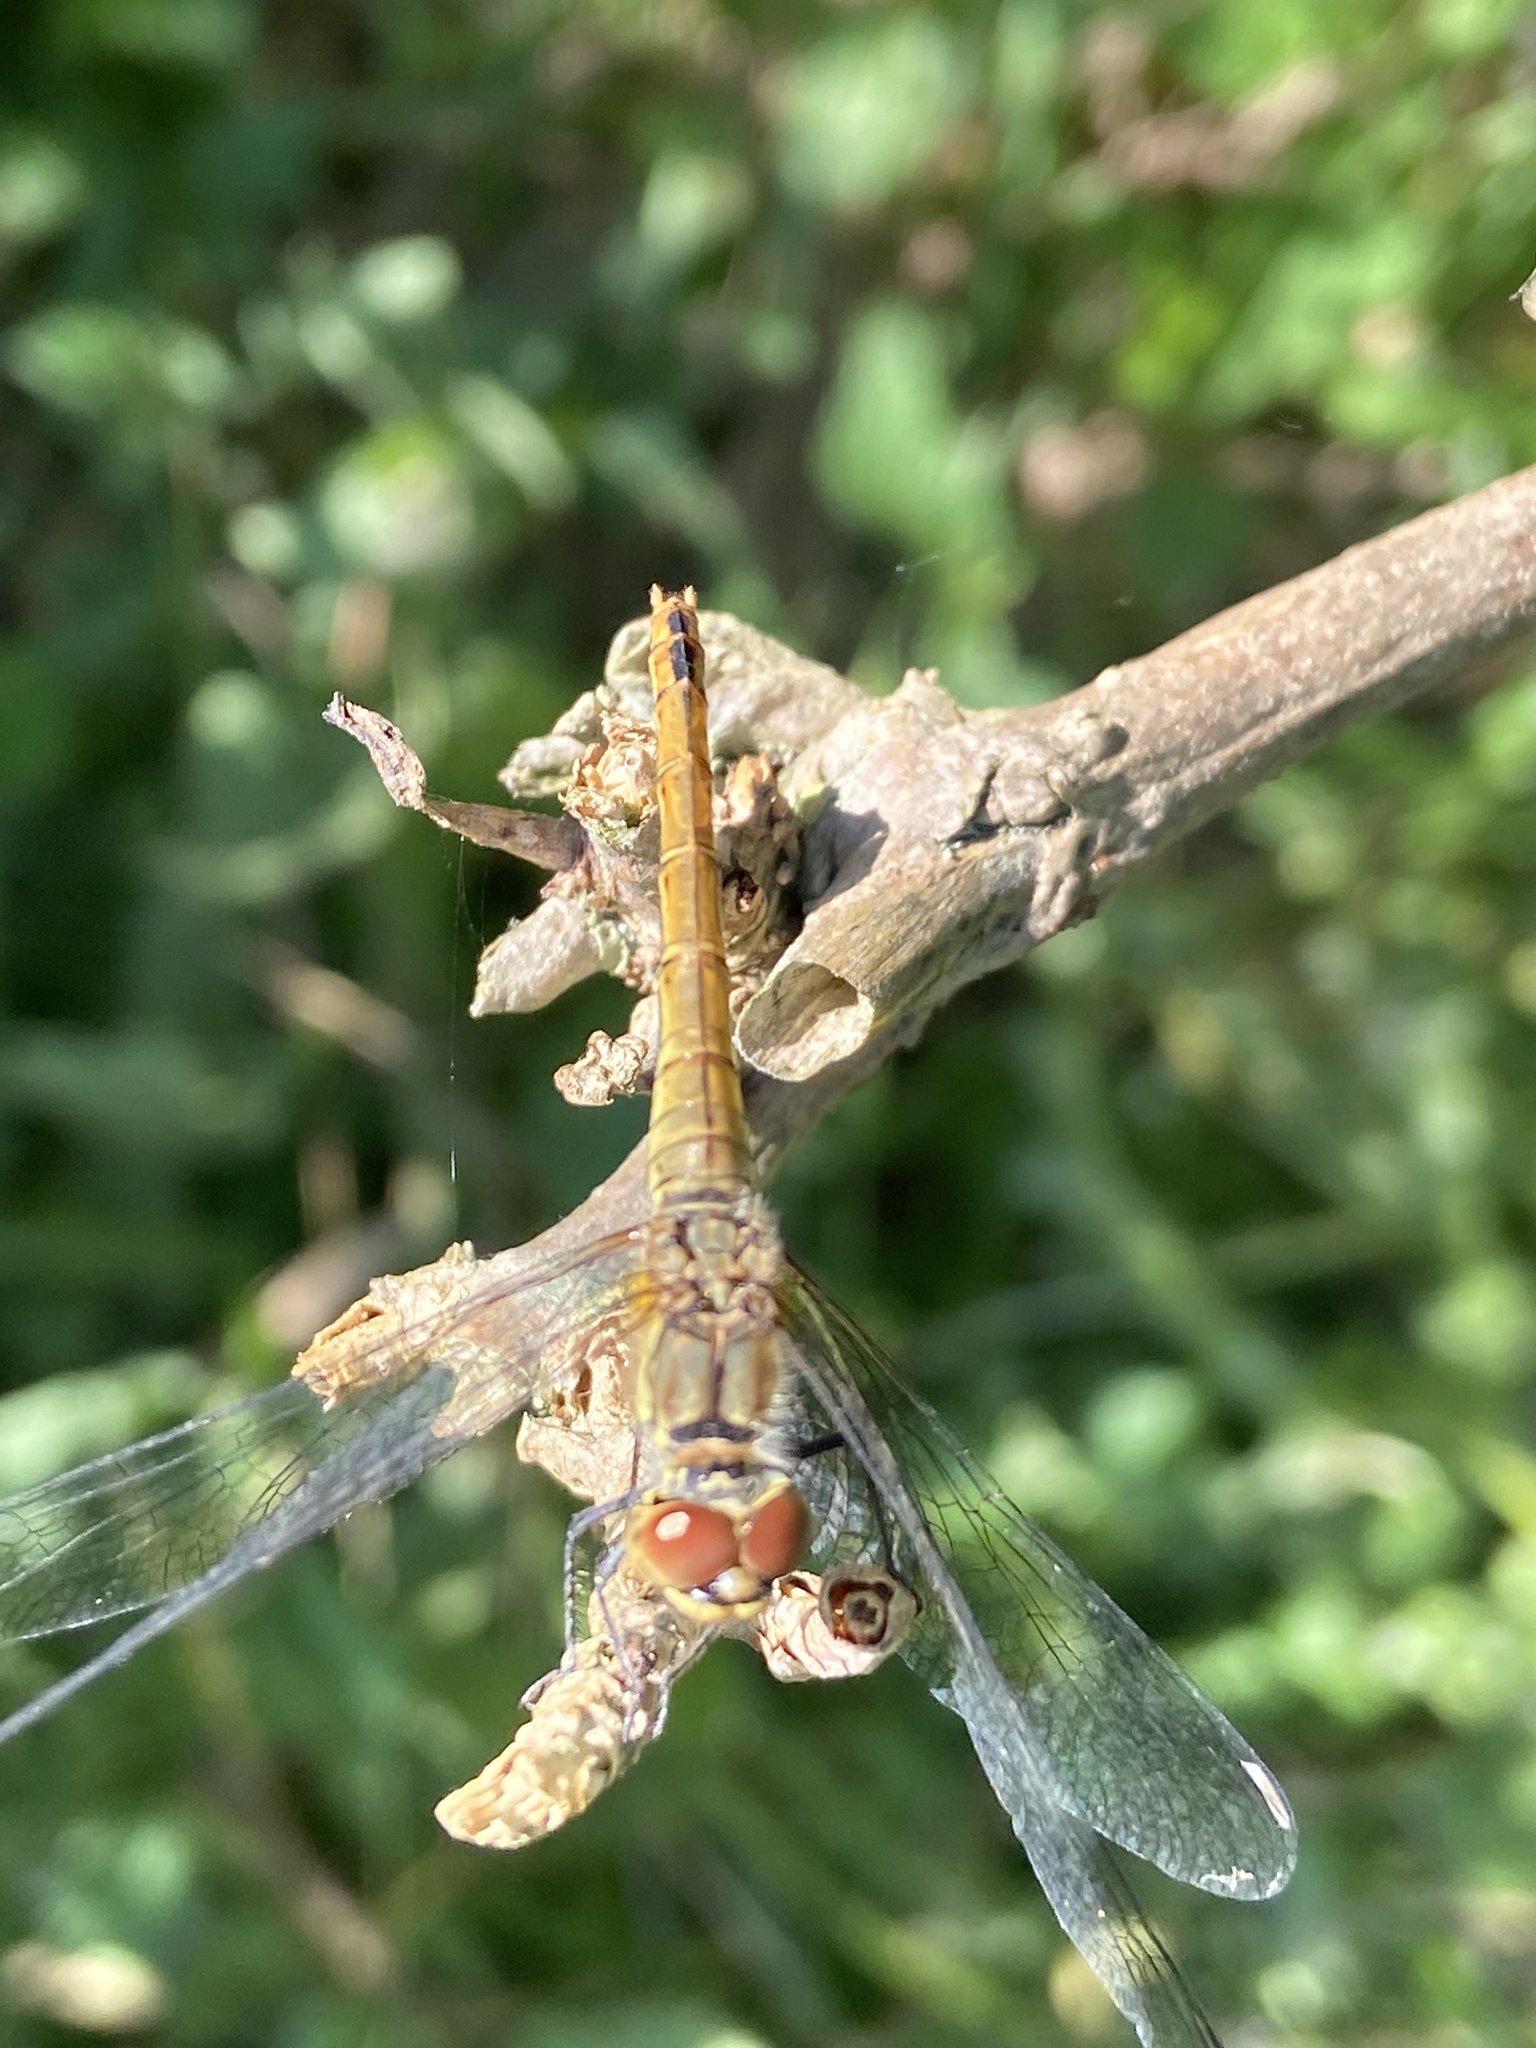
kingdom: Animalia
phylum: Arthropoda
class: Insecta
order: Odonata
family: Libellulidae
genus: Sympetrum
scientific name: Sympetrum sanguineum
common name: Ruddy darter
